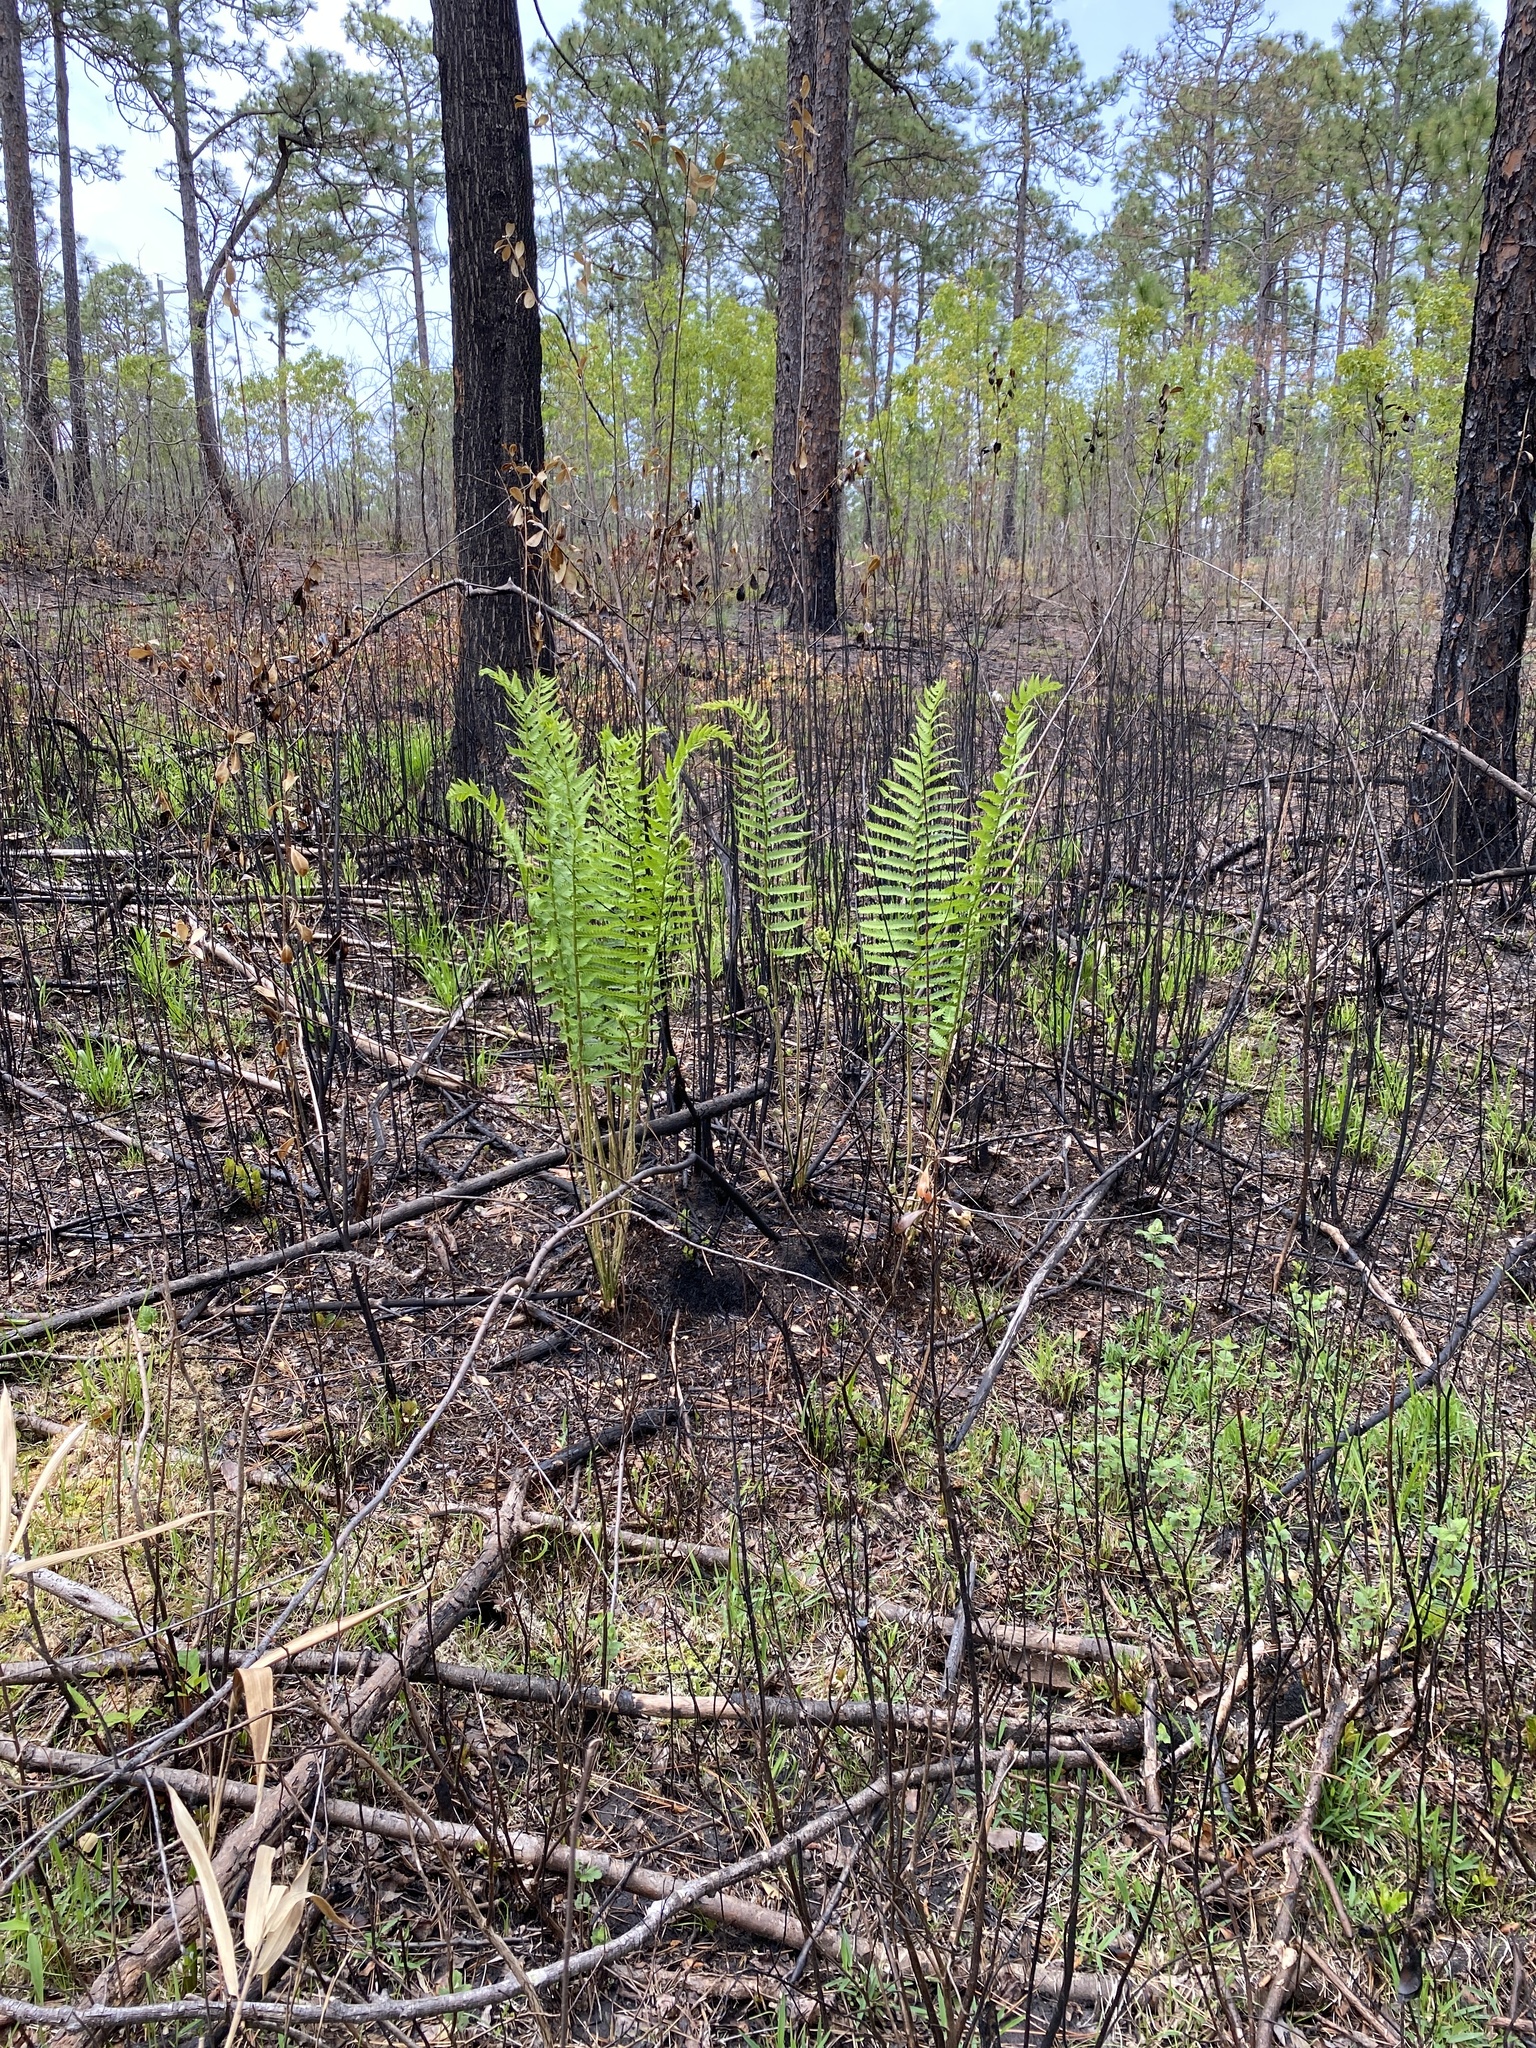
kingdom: Plantae
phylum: Tracheophyta
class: Polypodiopsida
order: Osmundales
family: Osmundaceae
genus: Osmundastrum
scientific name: Osmundastrum cinnamomeum
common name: Cinnamon fern
